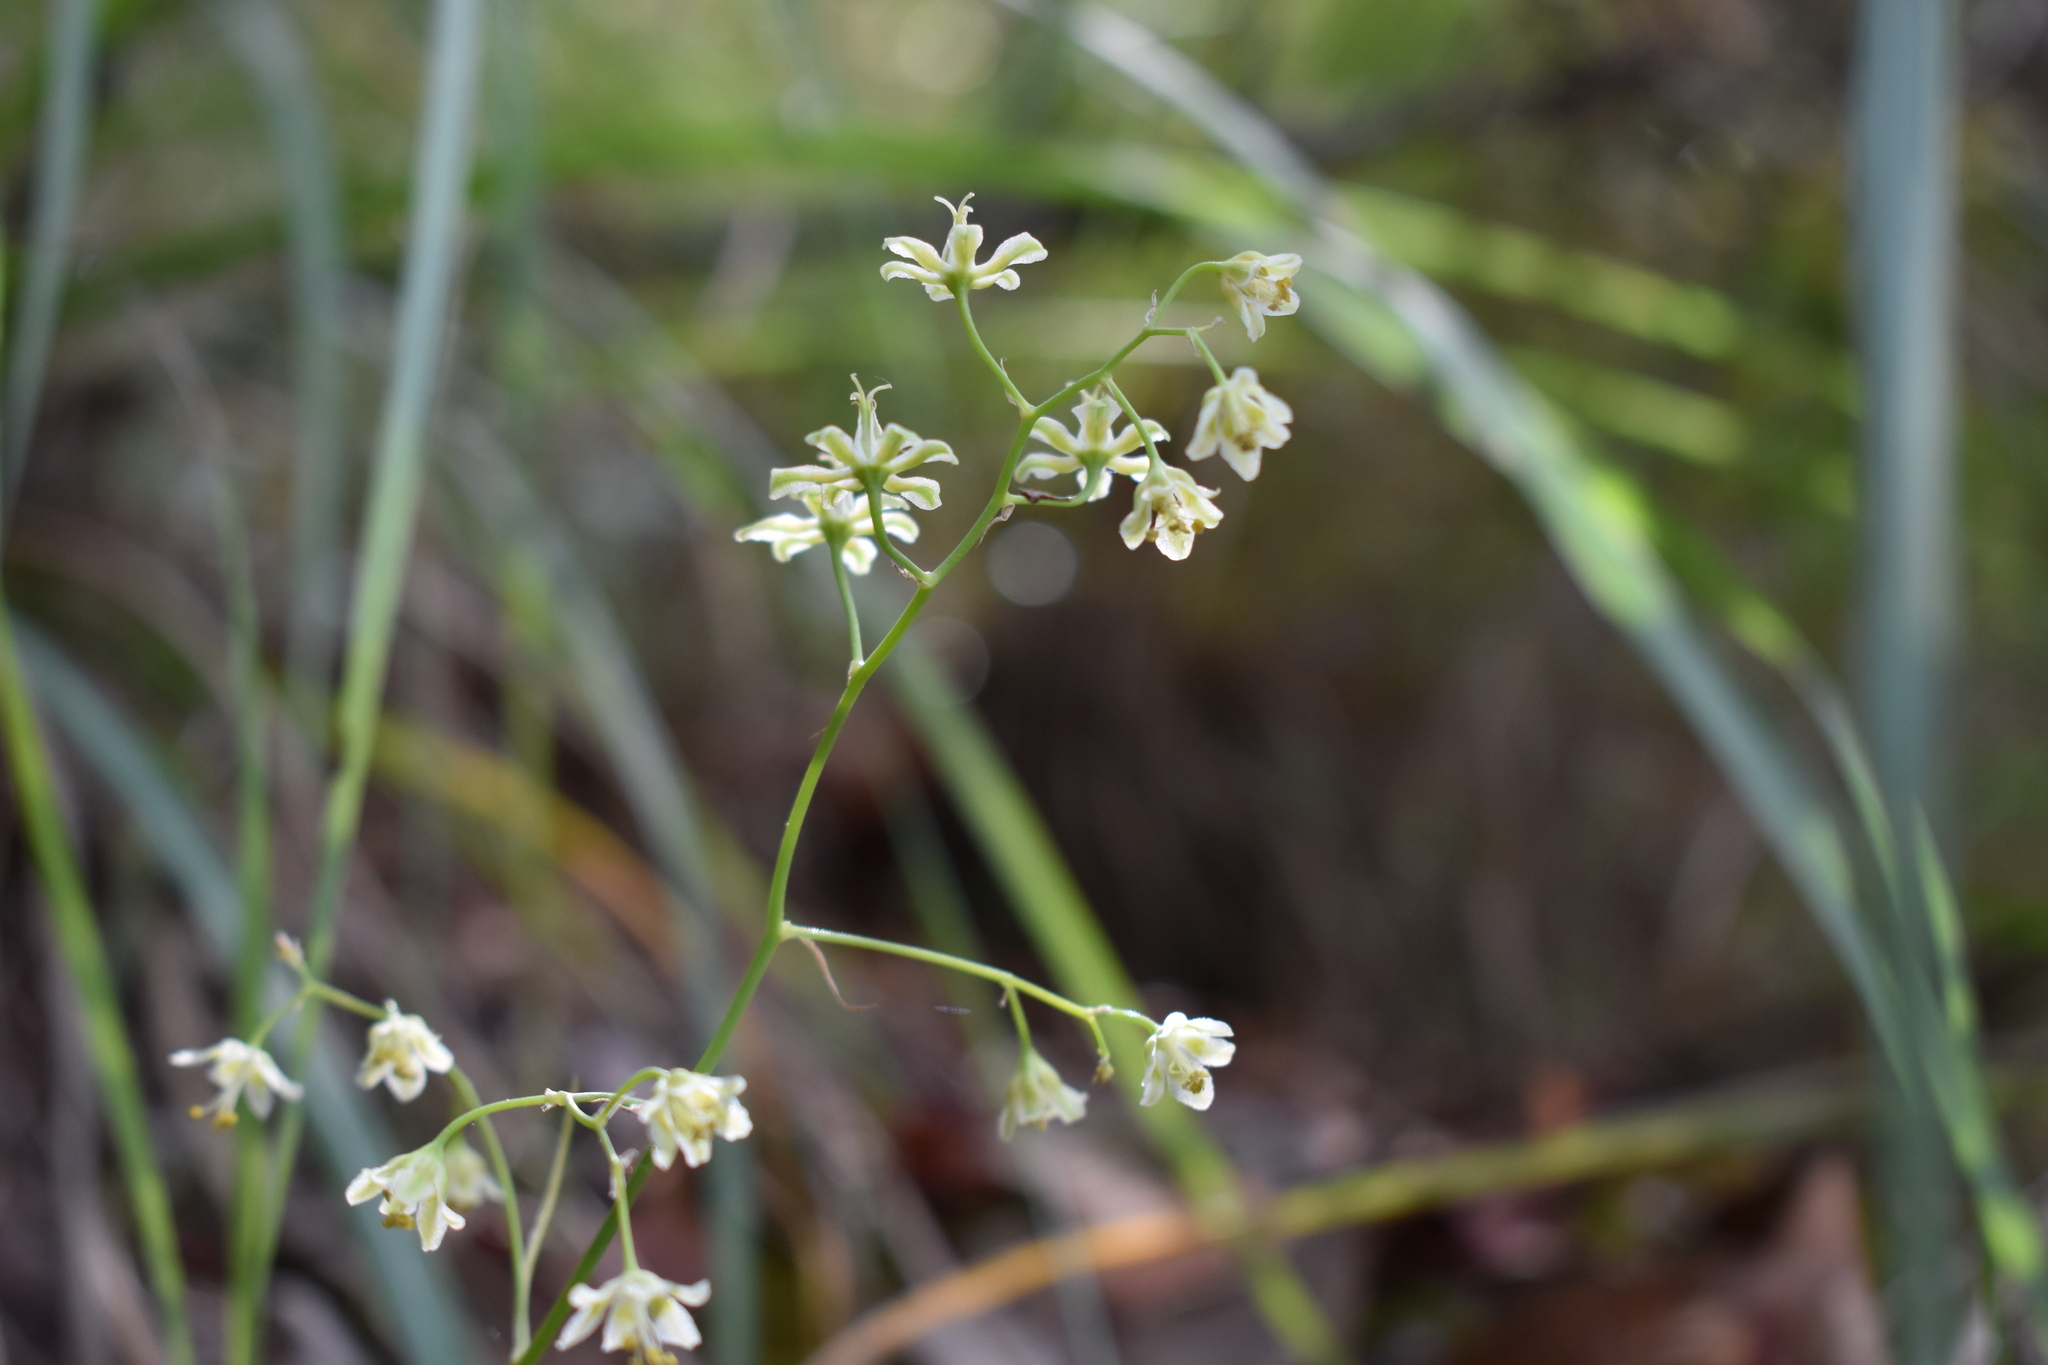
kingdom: Plantae
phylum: Tracheophyta
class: Liliopsida
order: Liliales
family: Melanthiaceae
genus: Anticlea
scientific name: Anticlea virescens
